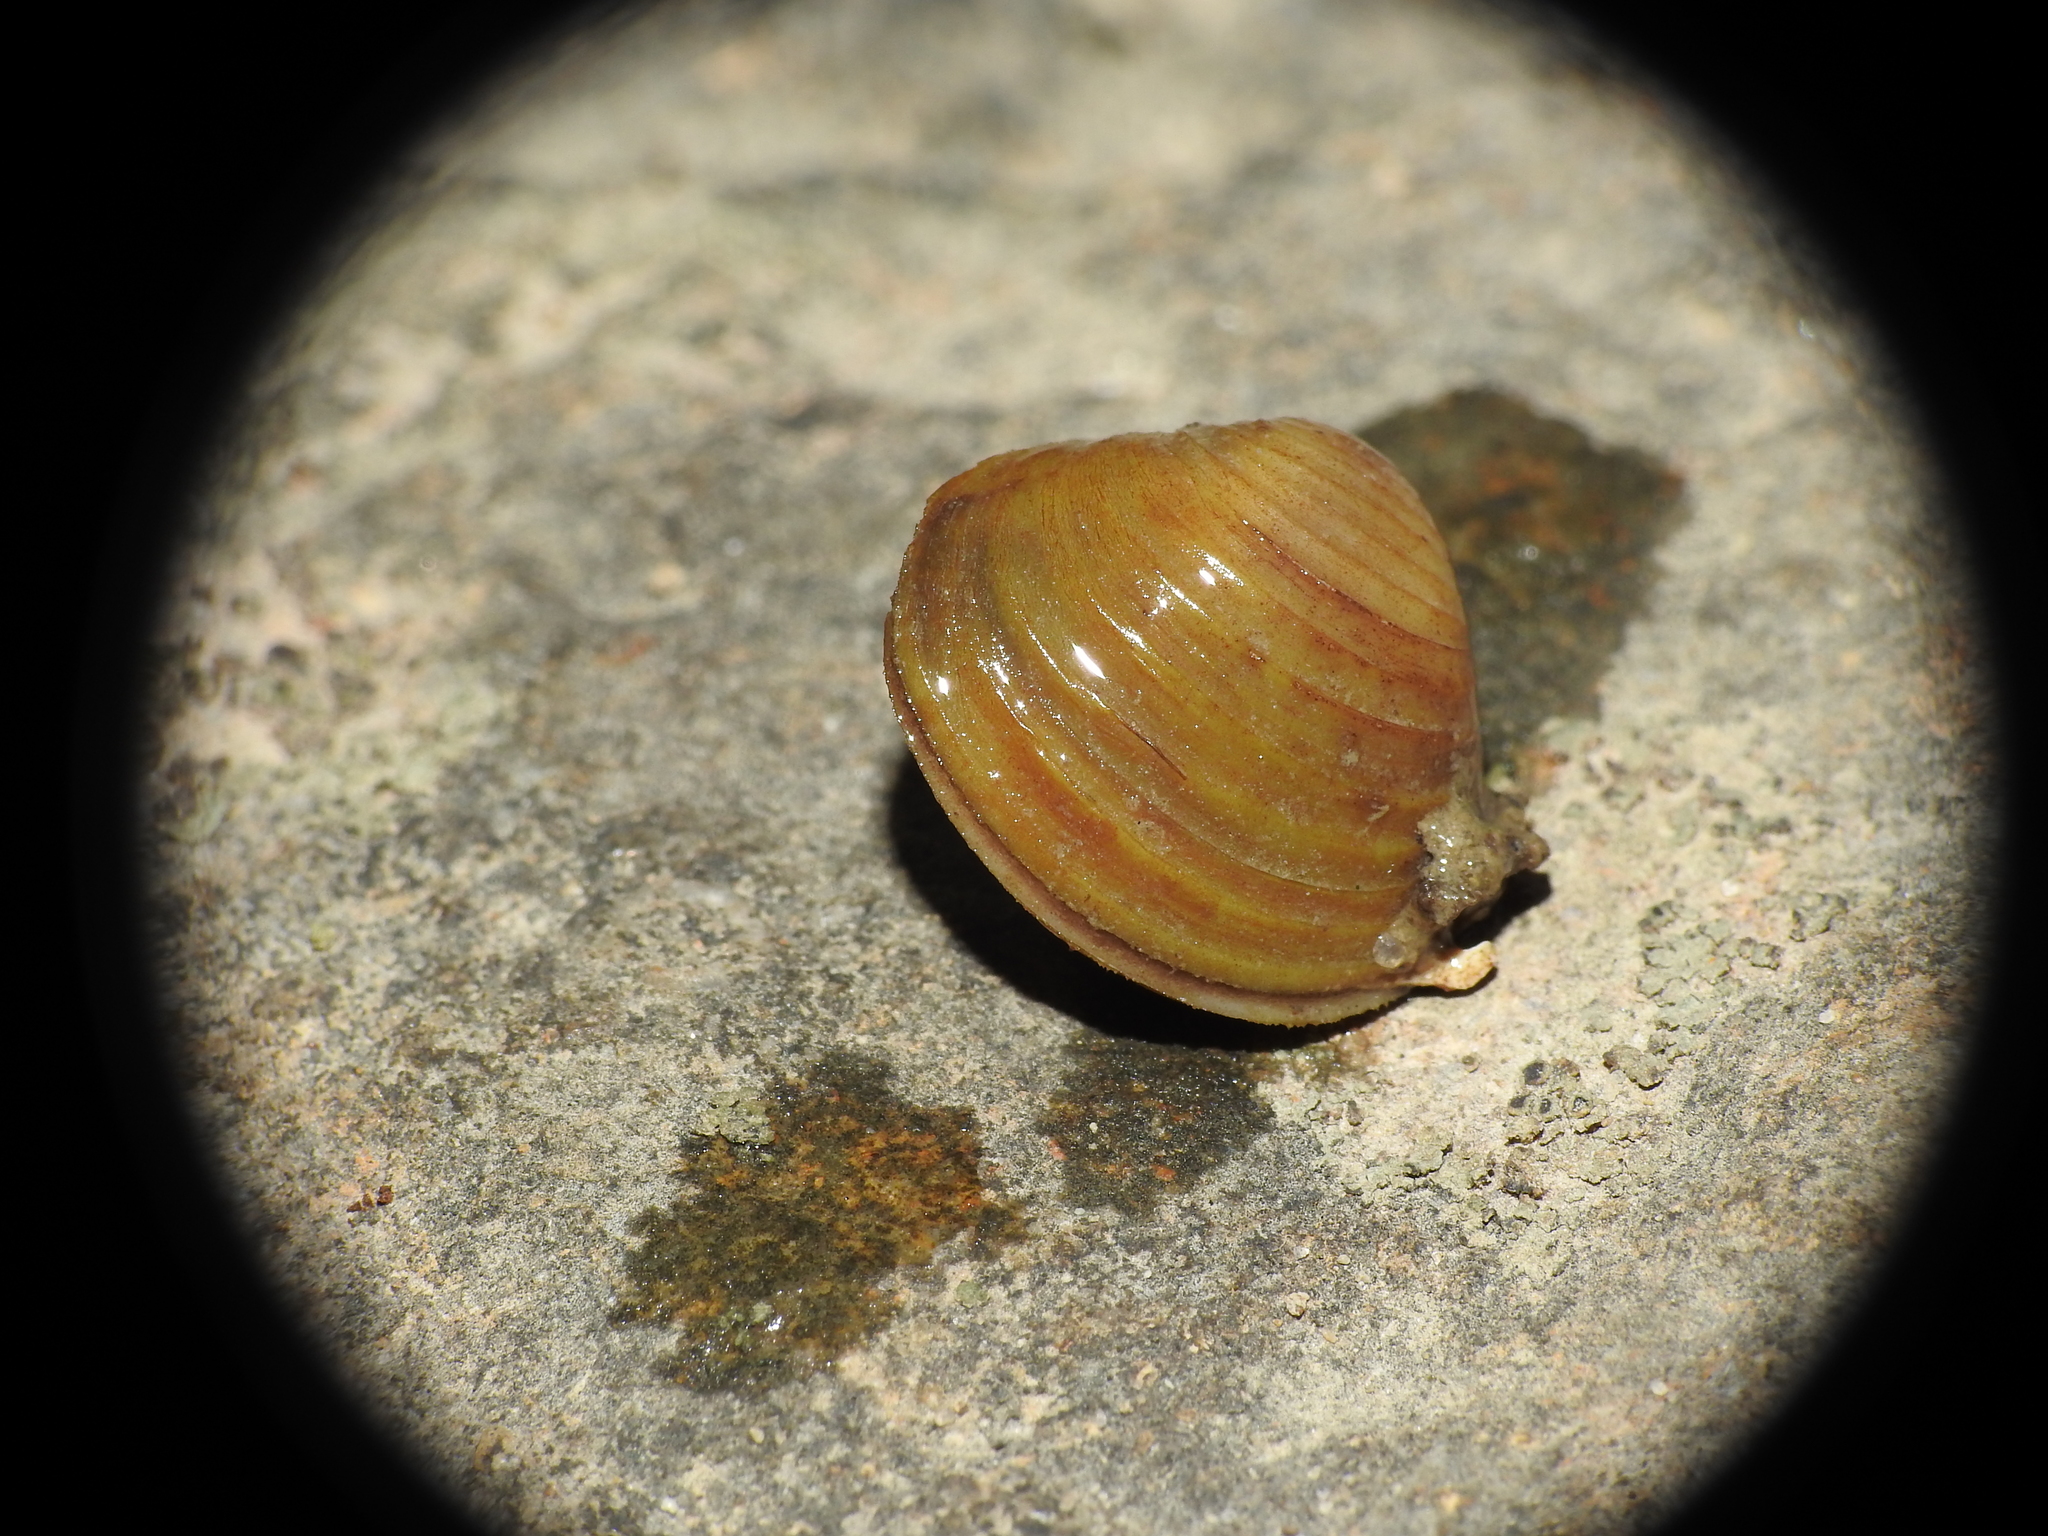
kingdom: Animalia
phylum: Mollusca
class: Bivalvia
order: Venerida
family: Cyrenidae
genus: Corbicula
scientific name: Corbicula fluminea
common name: Asian clam
